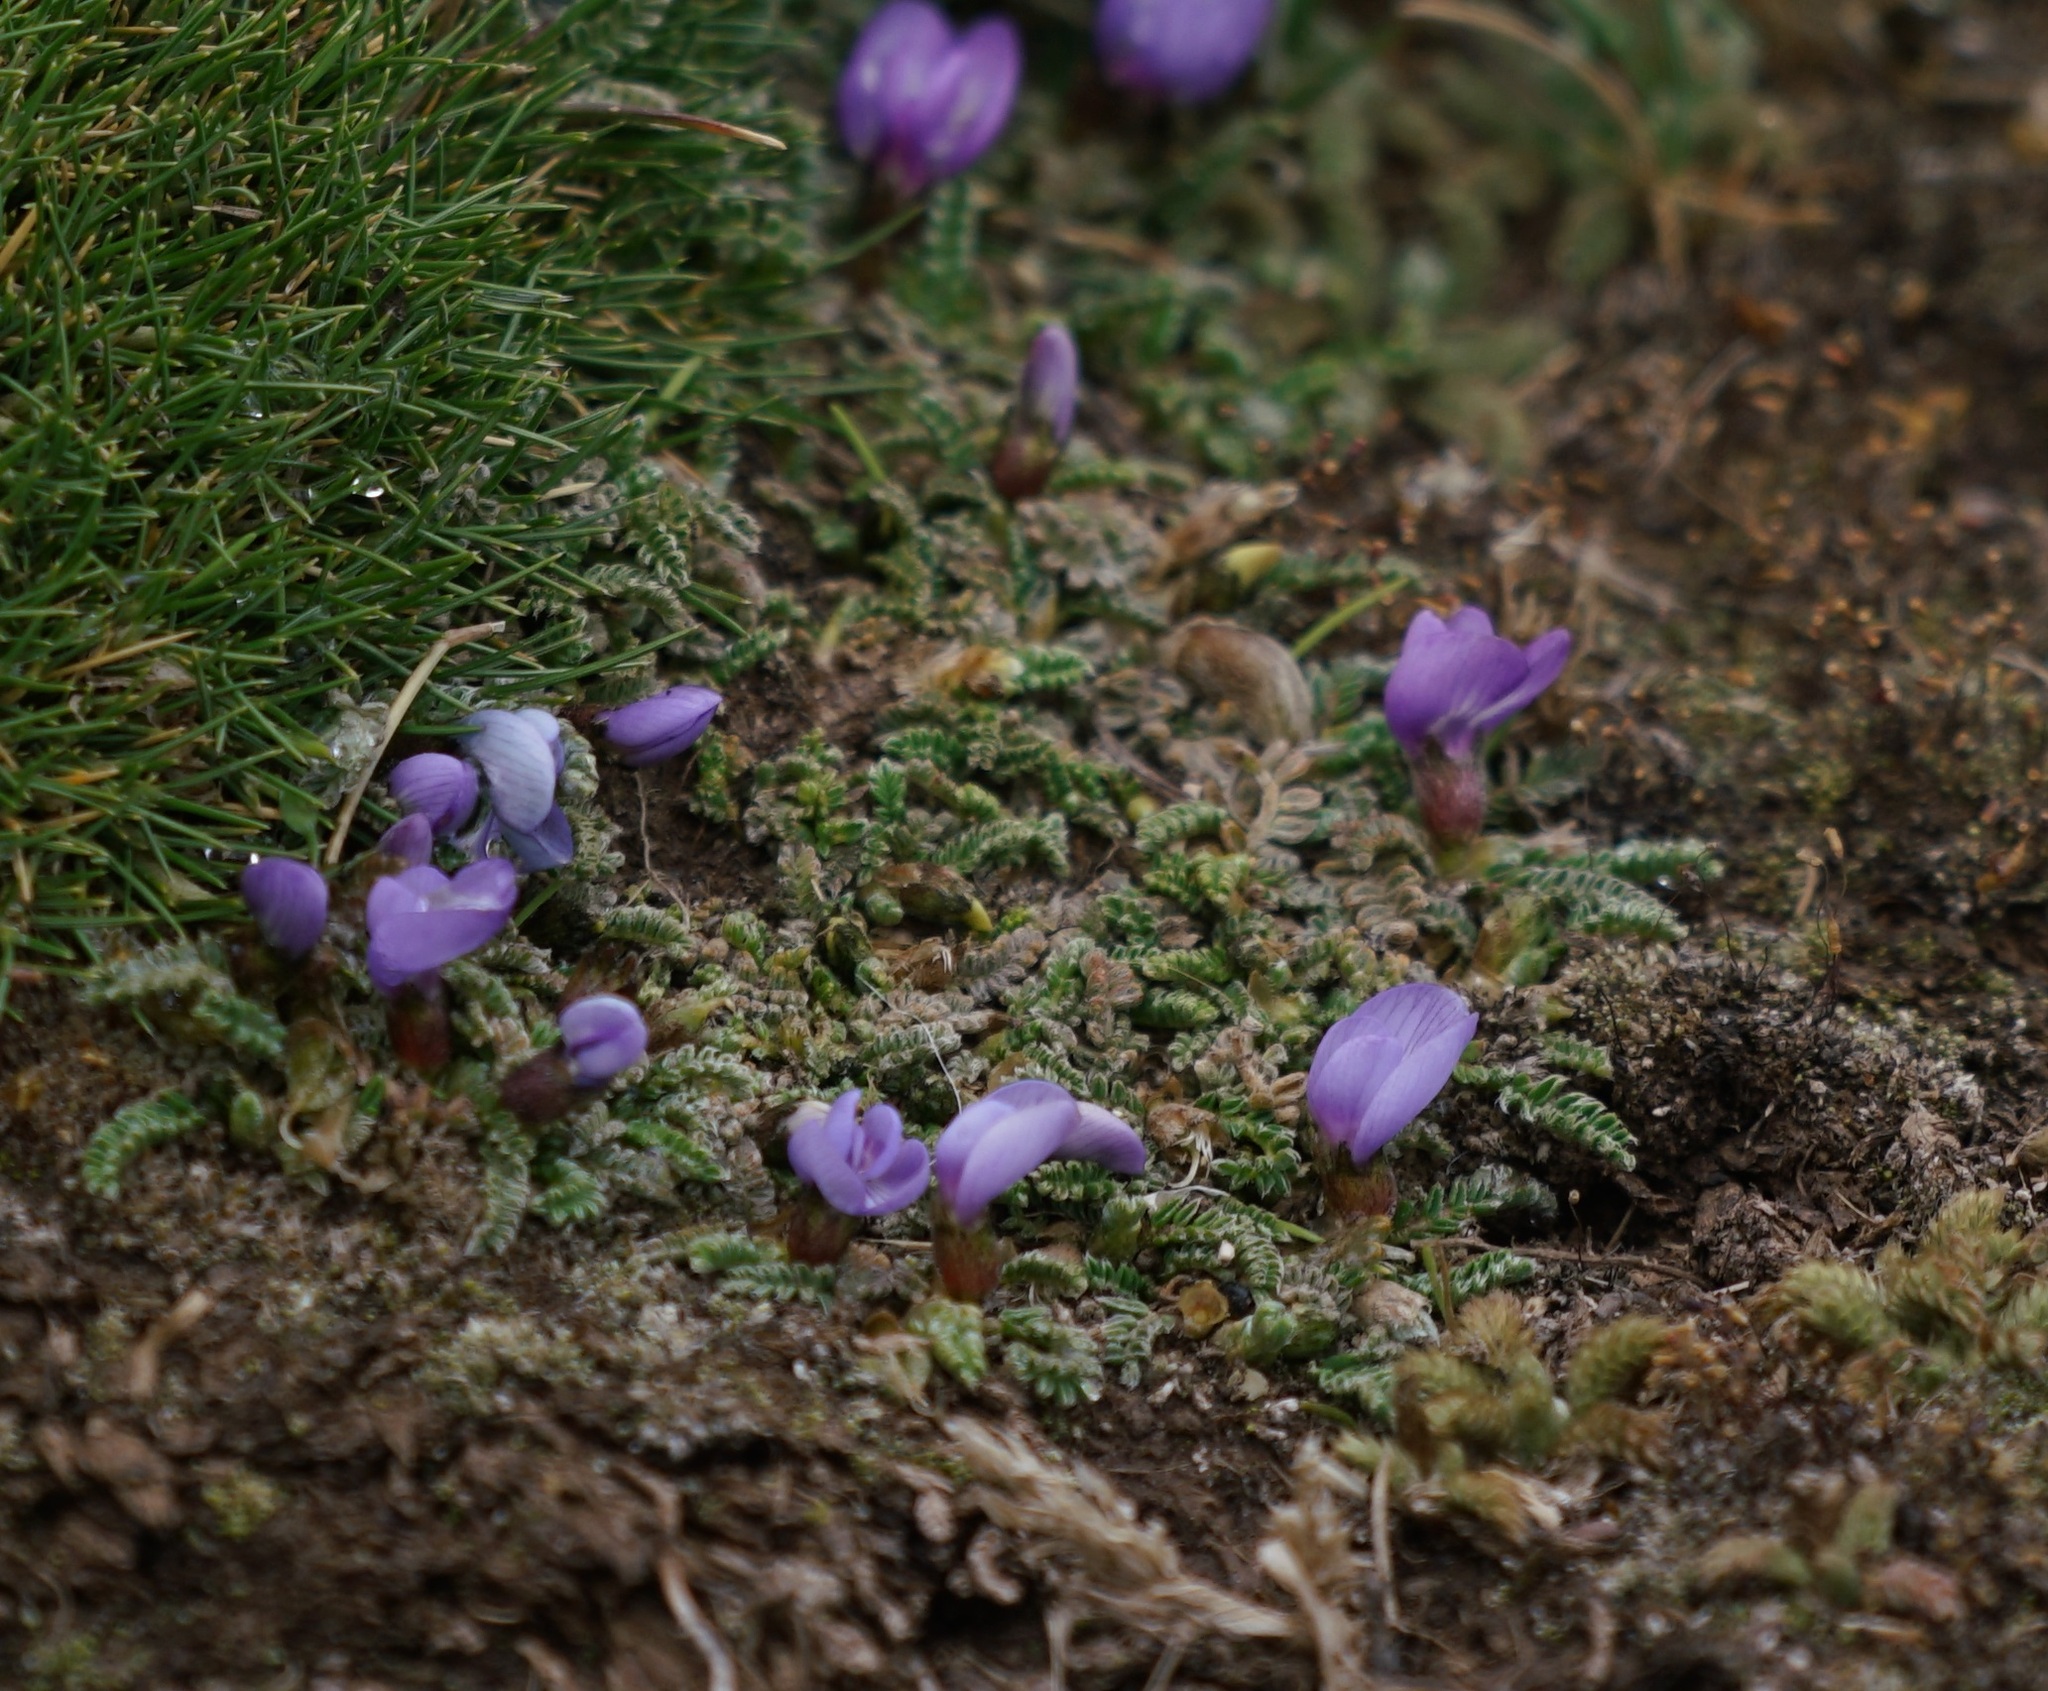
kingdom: Plantae
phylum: Tracheophyta
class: Magnoliopsida
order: Fabales
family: Fabaceae
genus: Astragalus
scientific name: Astragalus peruvianus
